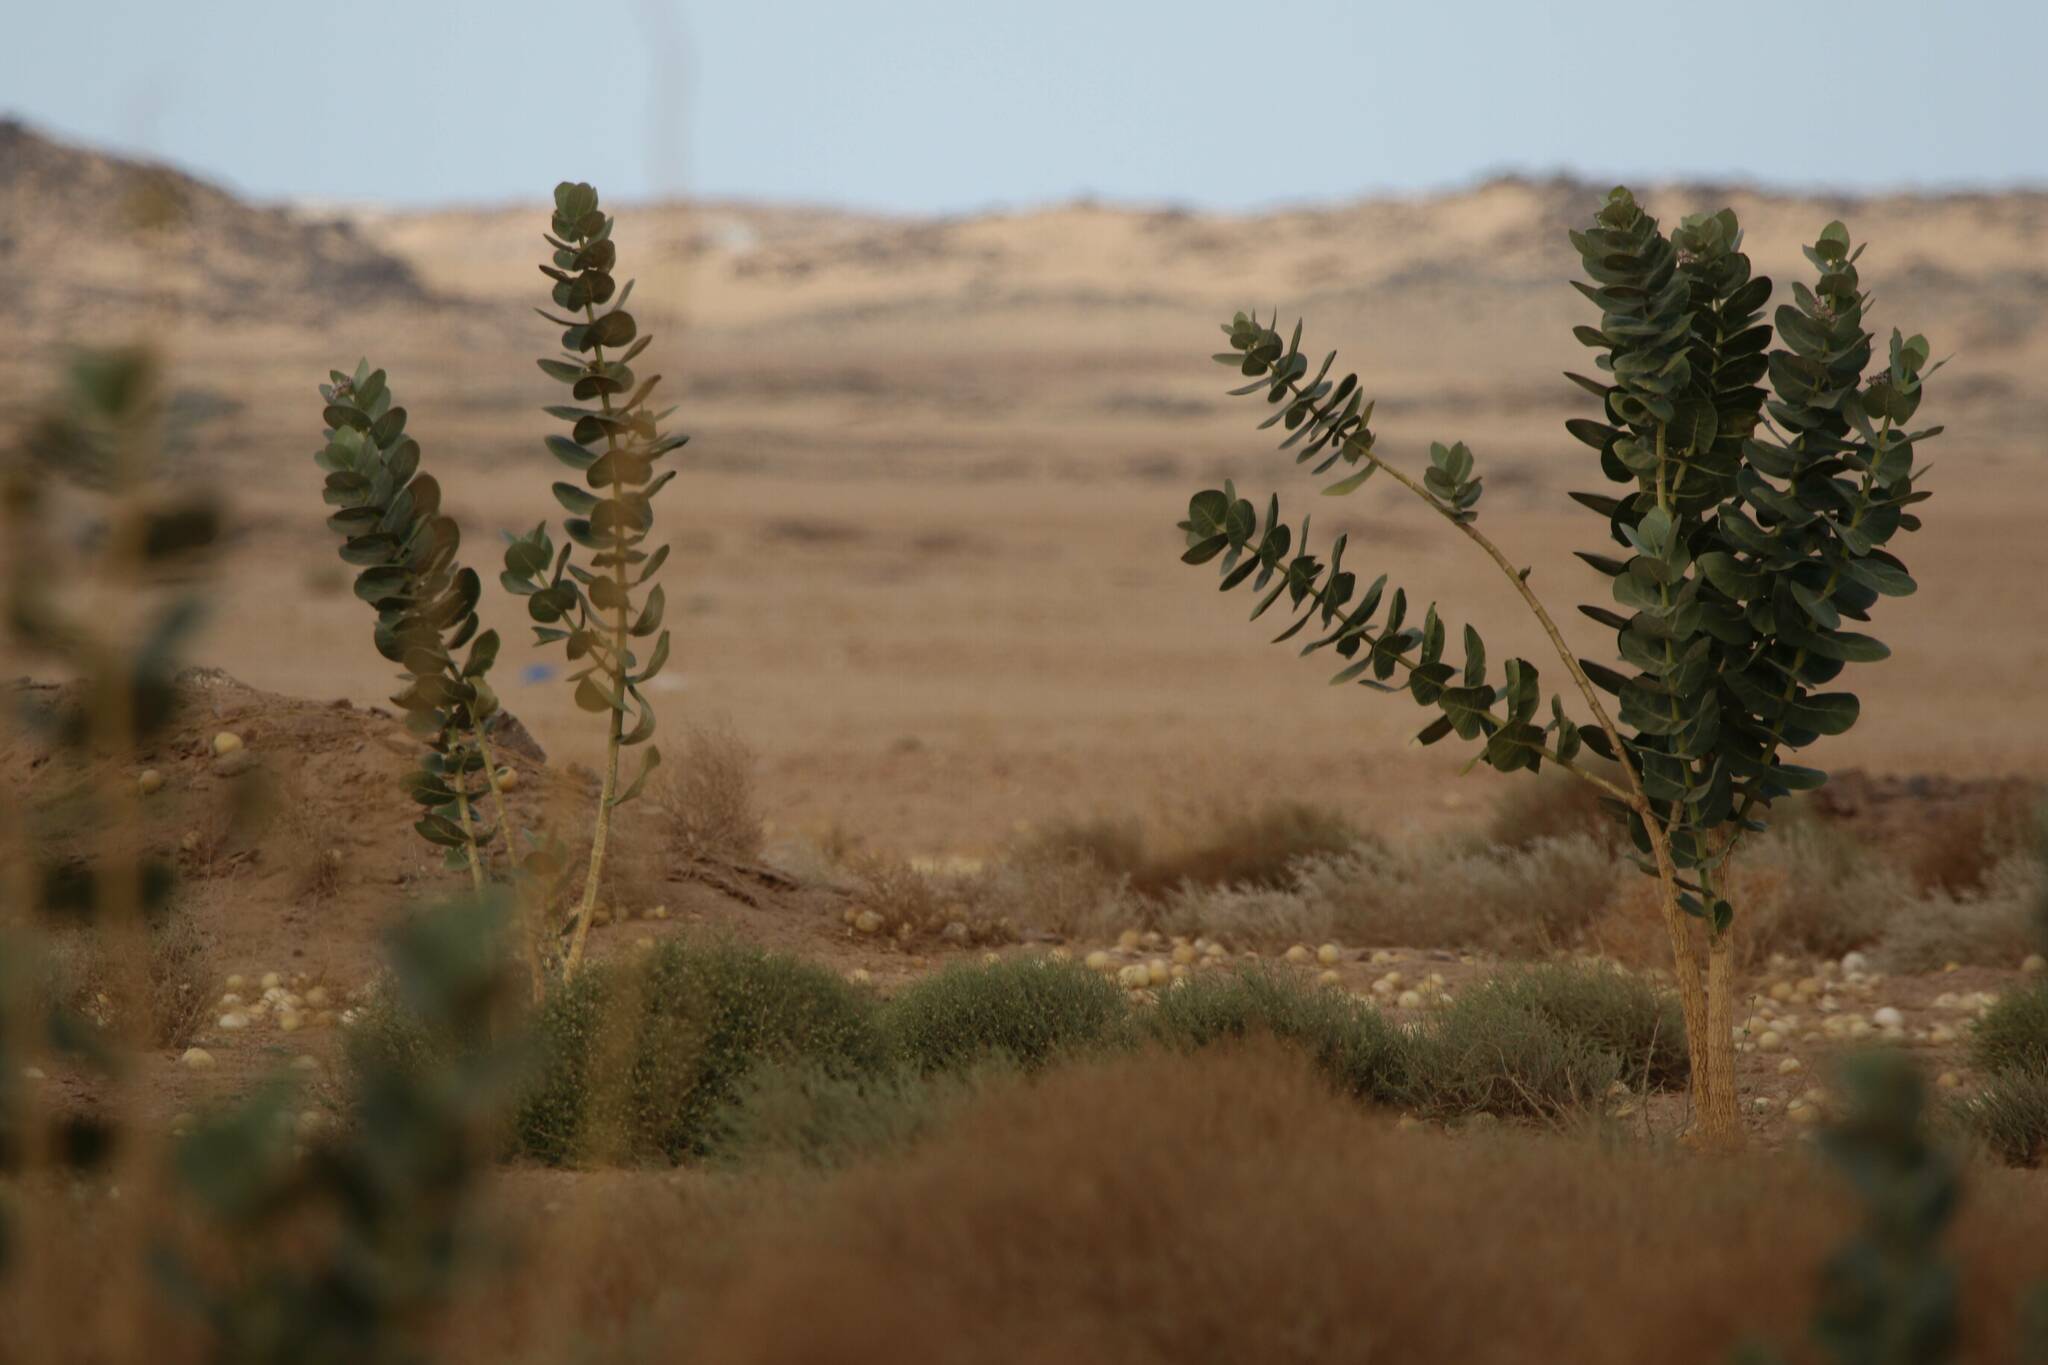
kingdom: Plantae
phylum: Tracheophyta
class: Magnoliopsida
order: Gentianales
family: Apocynaceae
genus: Calotropis
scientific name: Calotropis procera
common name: Roostertree
